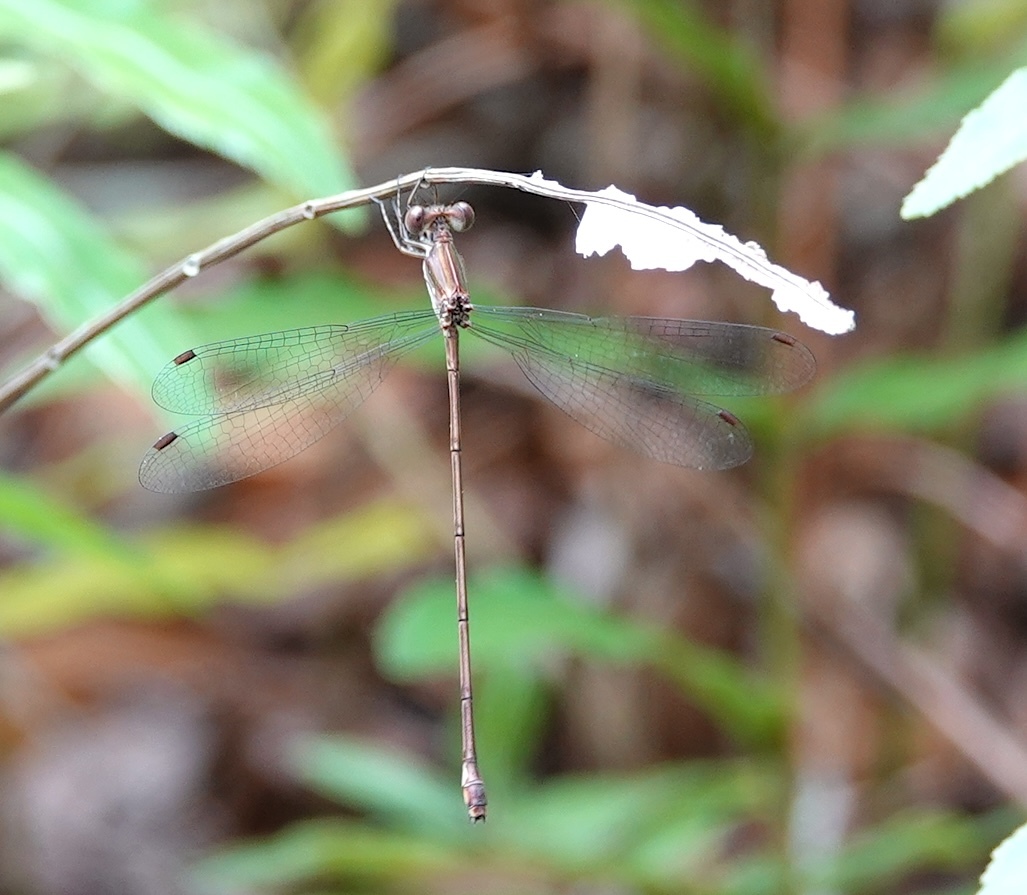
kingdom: Animalia
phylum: Arthropoda
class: Insecta
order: Odonata
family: Lestidae
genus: Lestes
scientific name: Lestes tenuatus
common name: Blue-striped spreadwing
